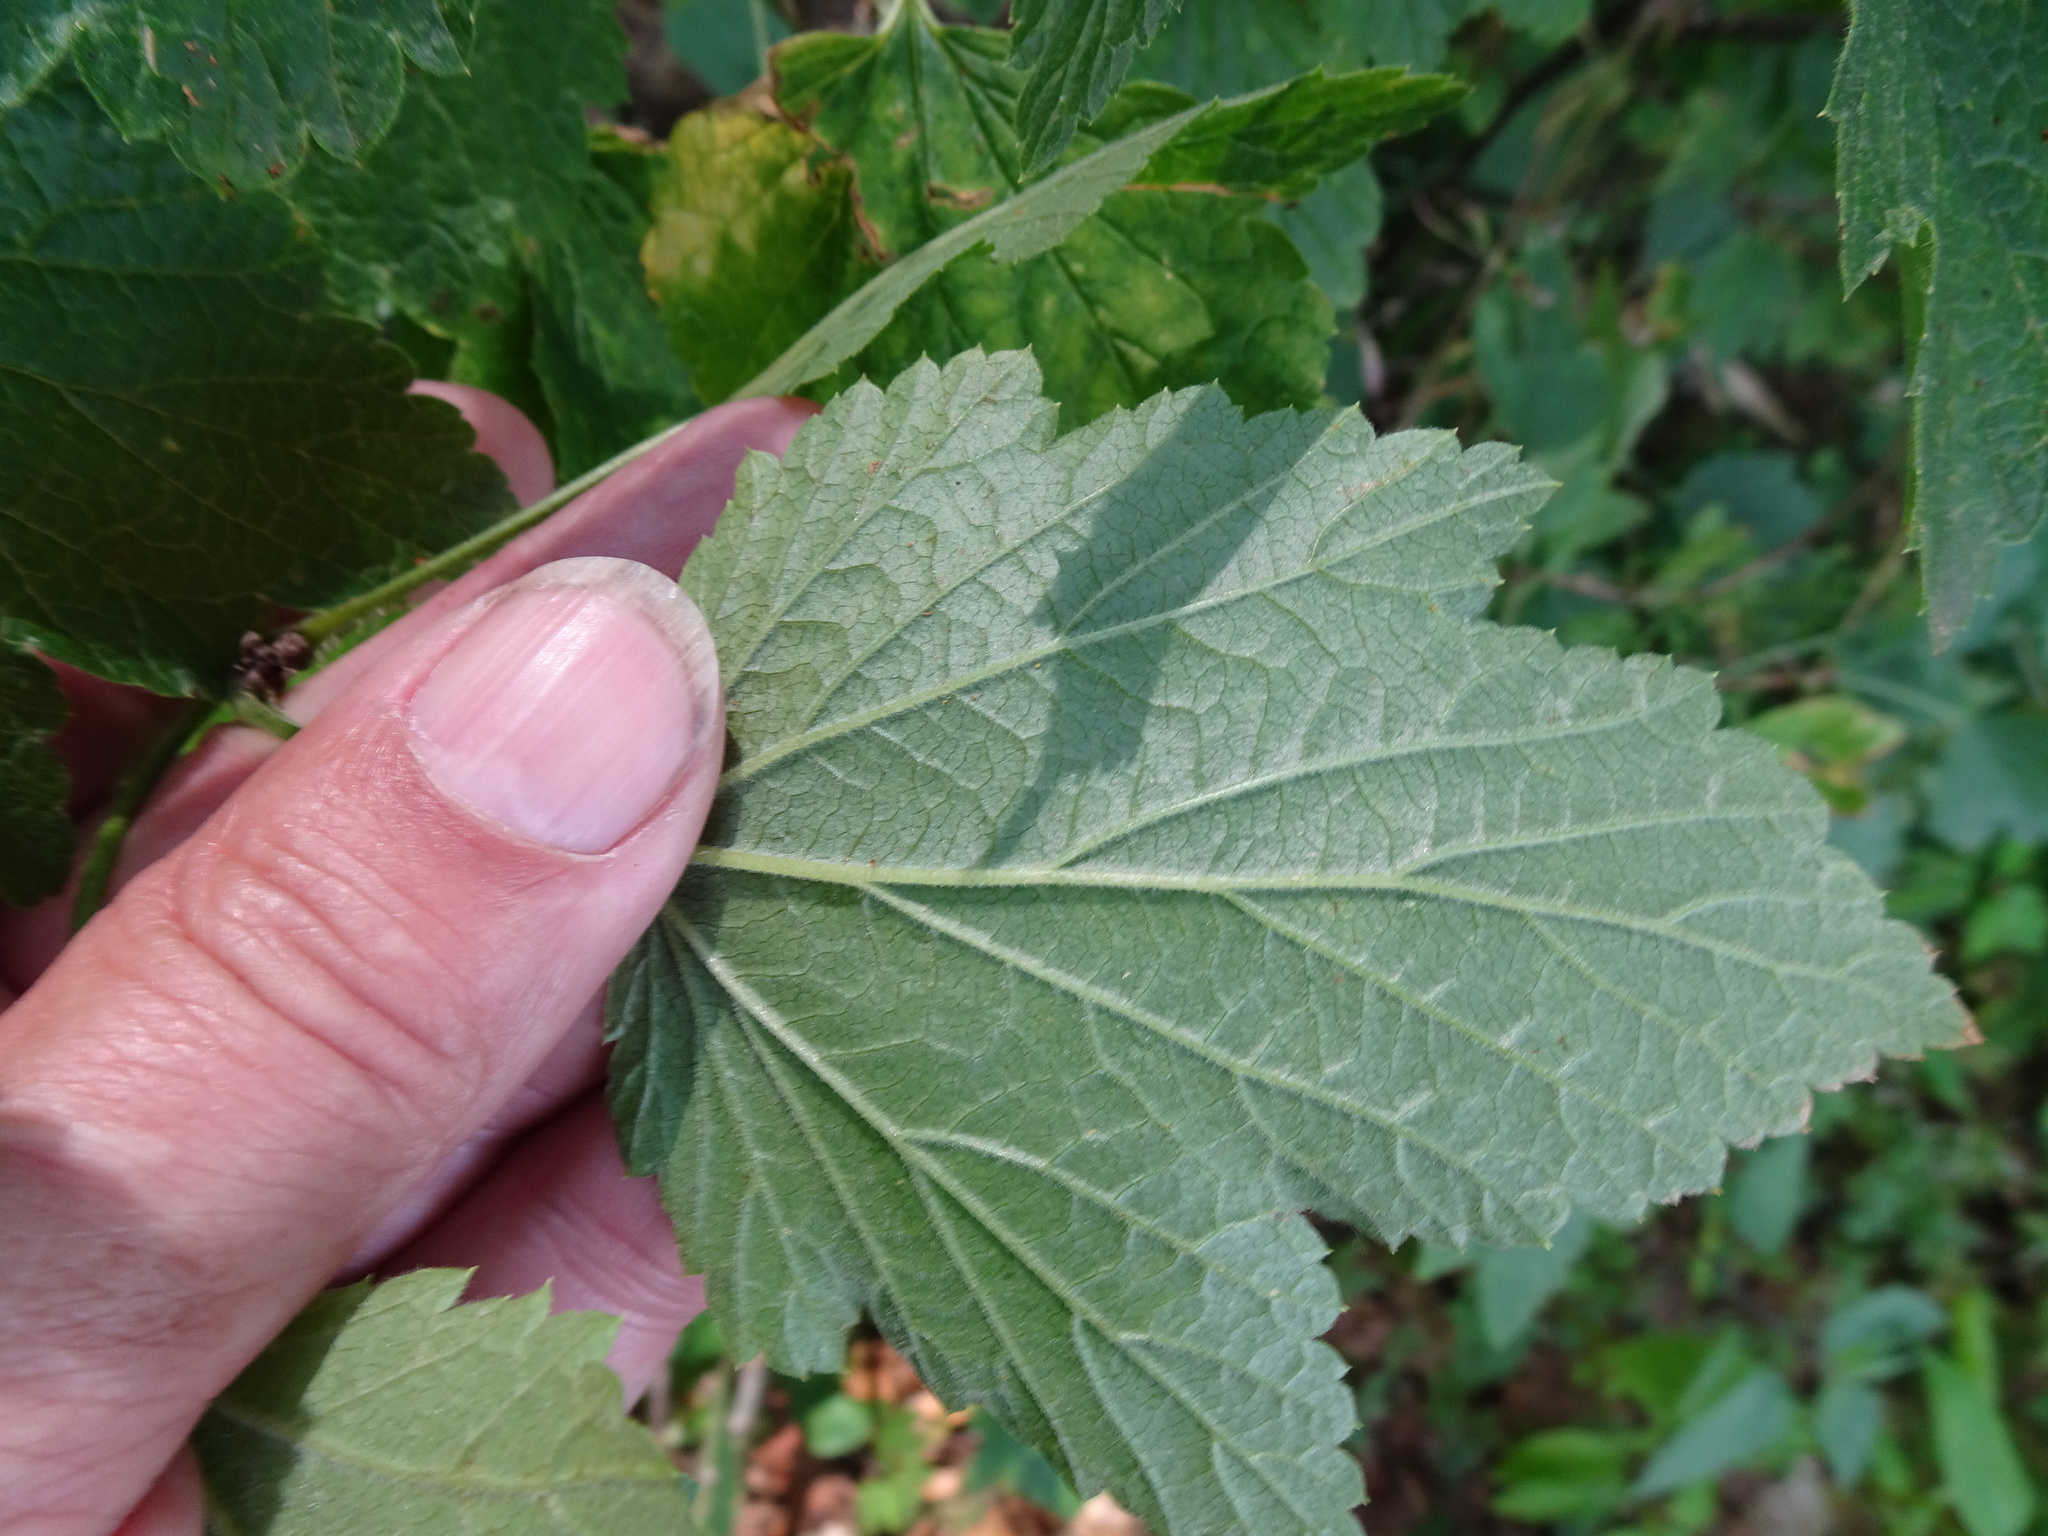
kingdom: Plantae
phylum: Tracheophyta
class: Magnoliopsida
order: Saxifragales
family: Grossulariaceae
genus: Ribes
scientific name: Ribes rubrum
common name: Red currant
